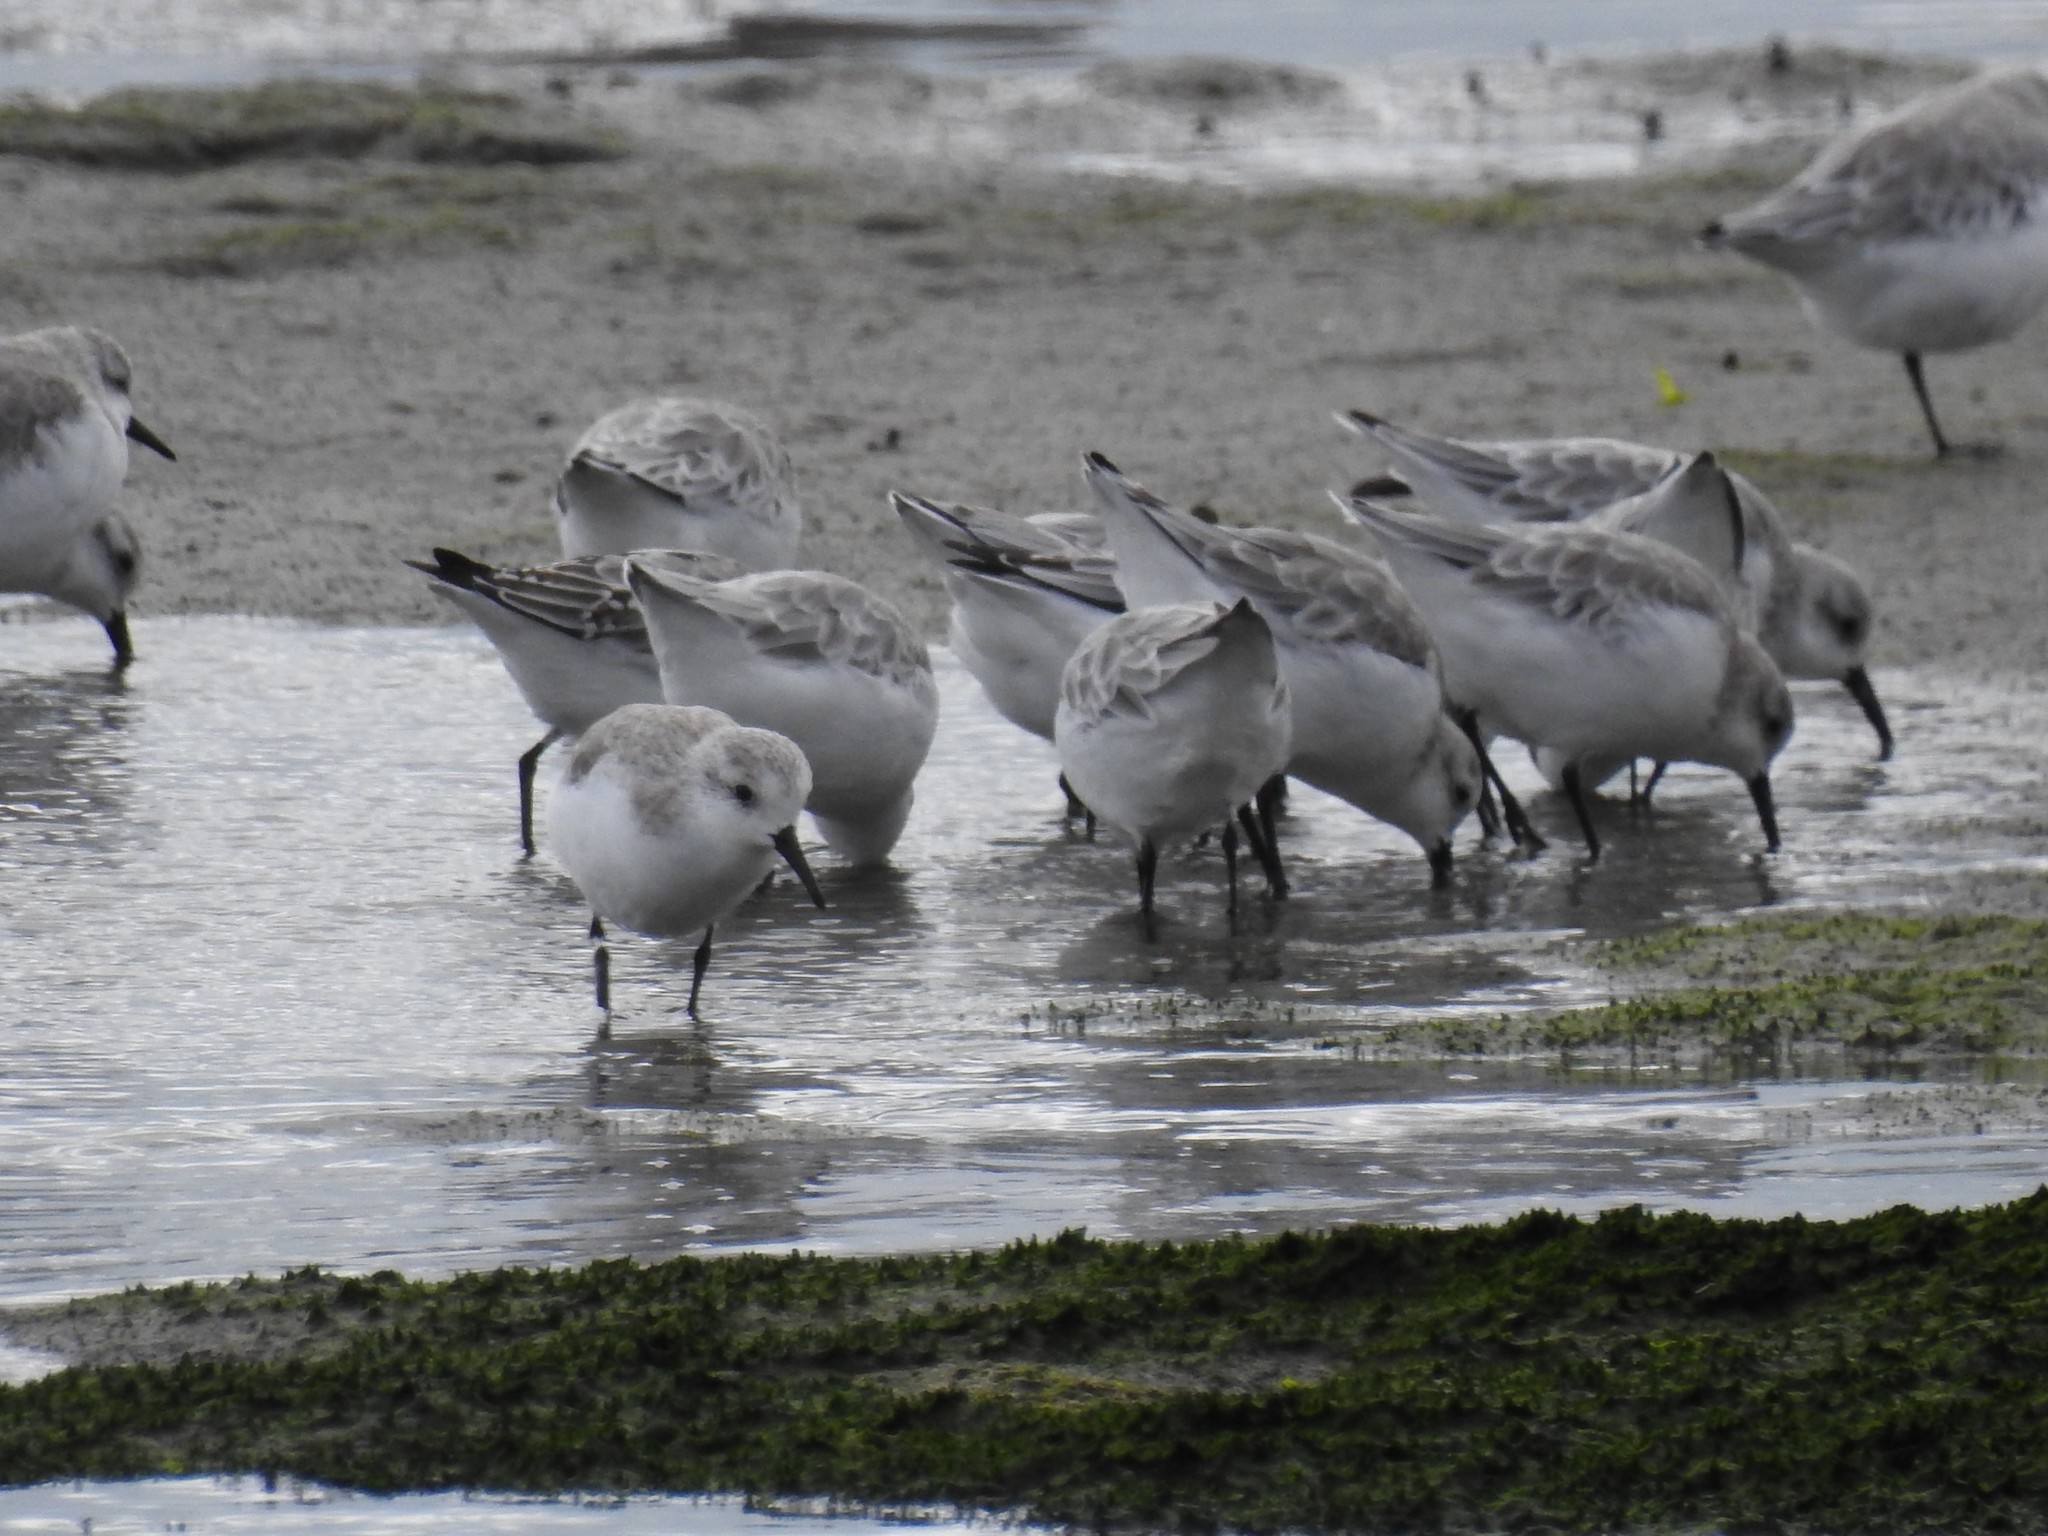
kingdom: Animalia
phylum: Chordata
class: Aves
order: Charadriiformes
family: Scolopacidae
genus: Calidris
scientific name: Calidris alba
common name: Sanderling
